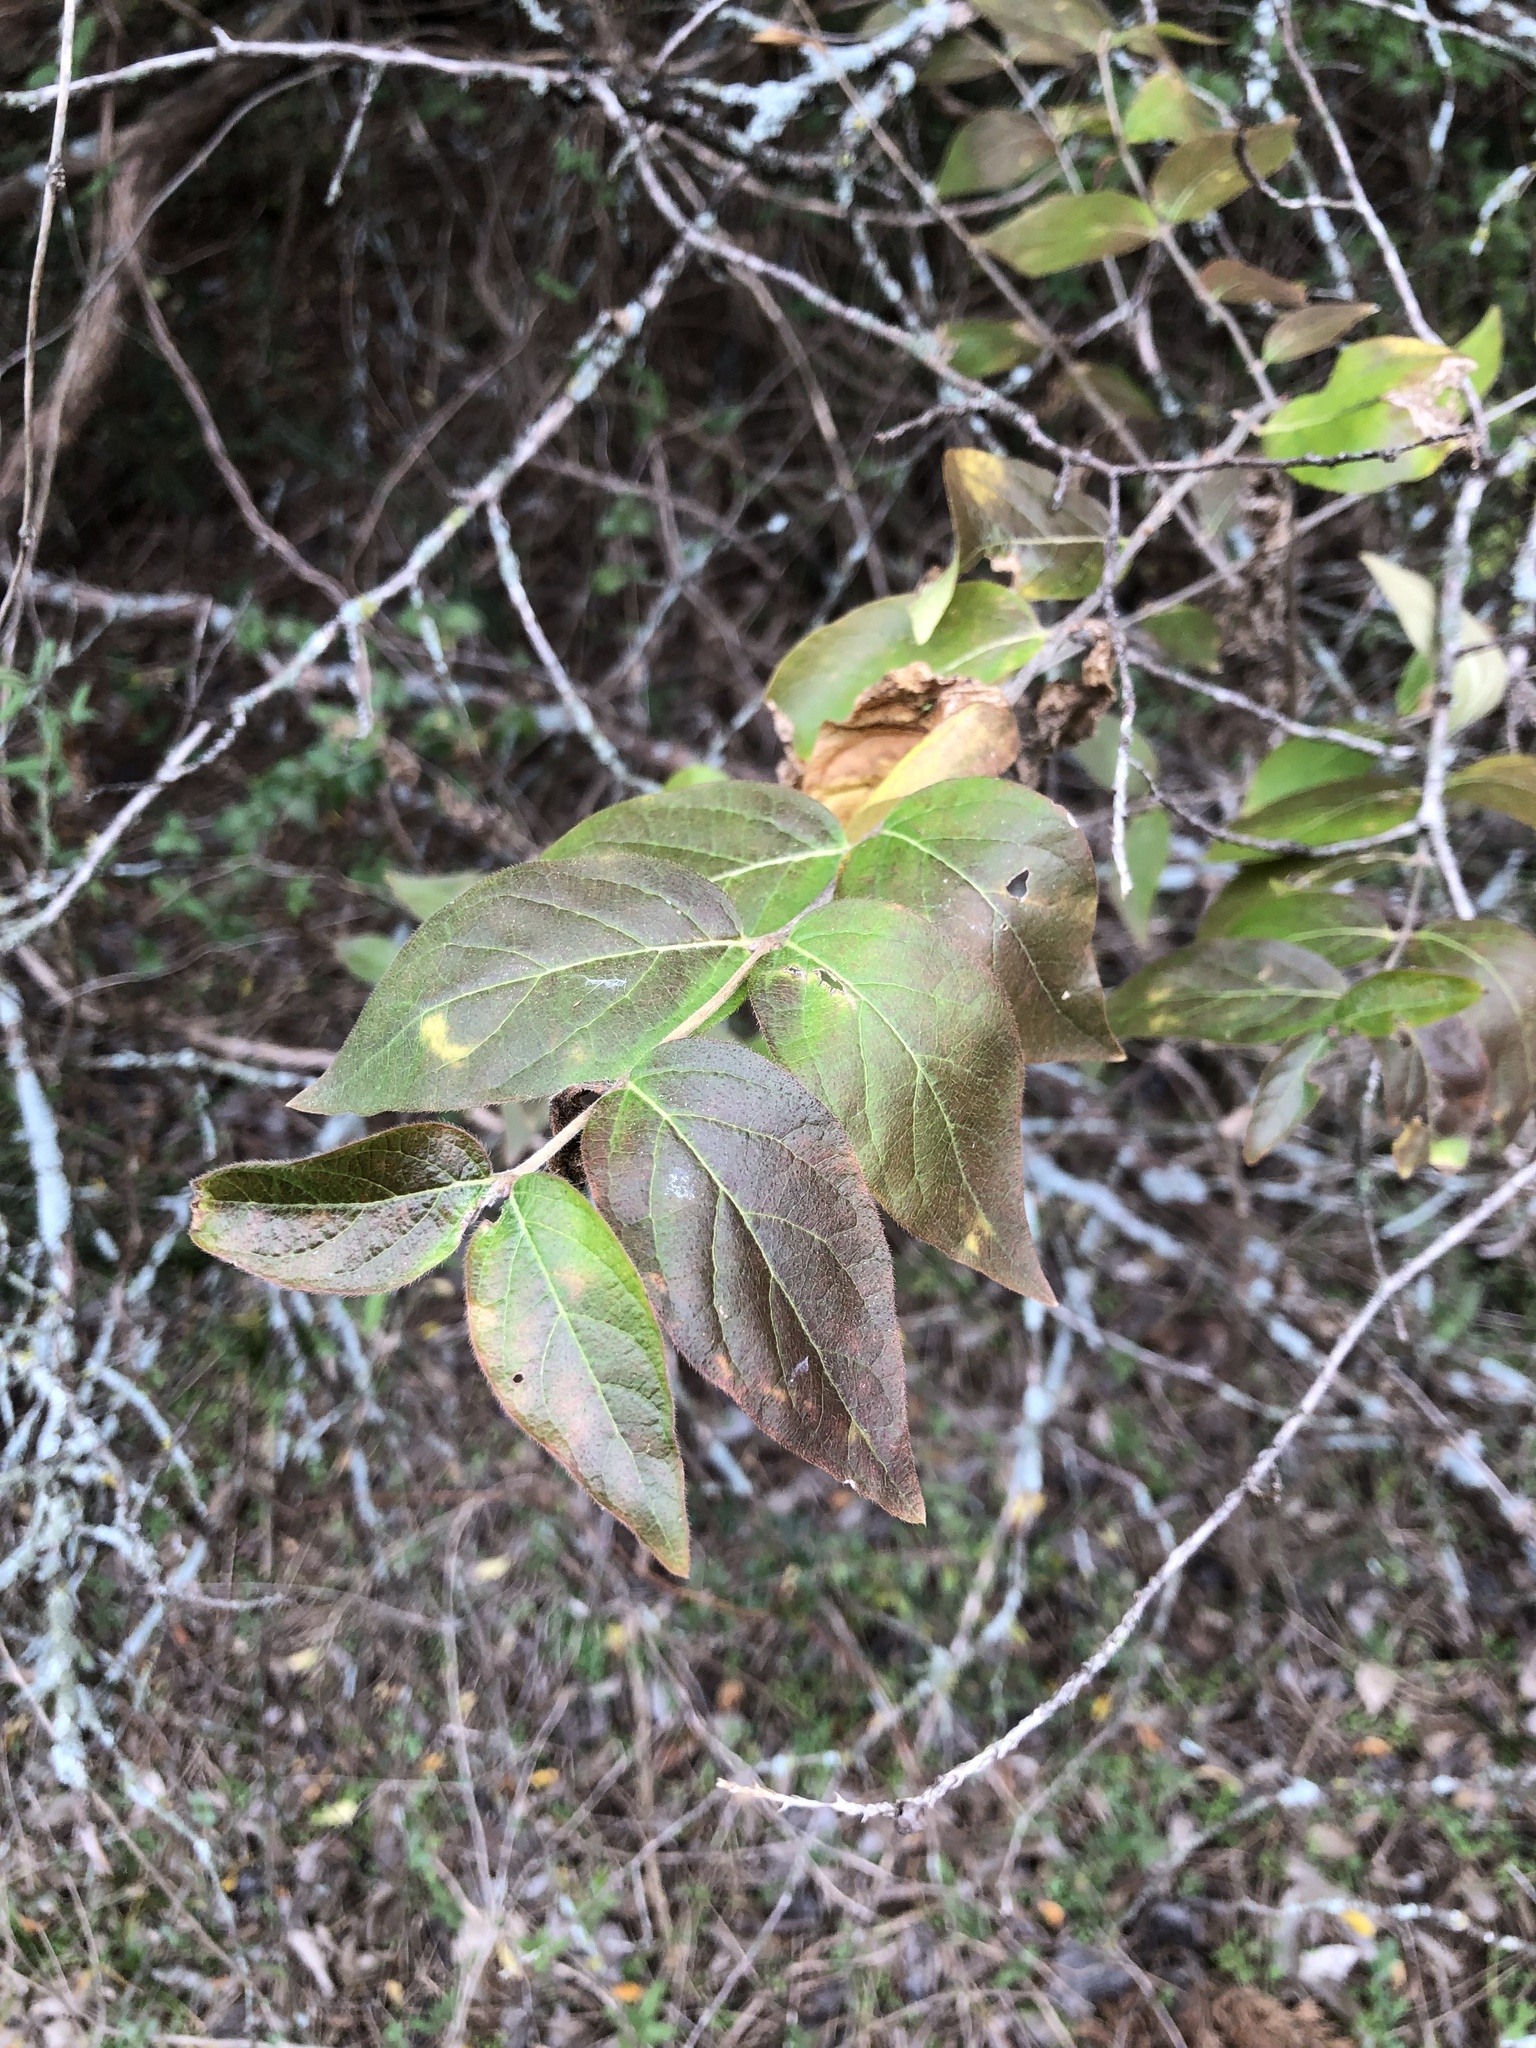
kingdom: Plantae
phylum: Tracheophyta
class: Magnoliopsida
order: Dipsacales
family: Caprifoliaceae
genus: Lonicera
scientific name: Lonicera maackii
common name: Amur honeysuckle
